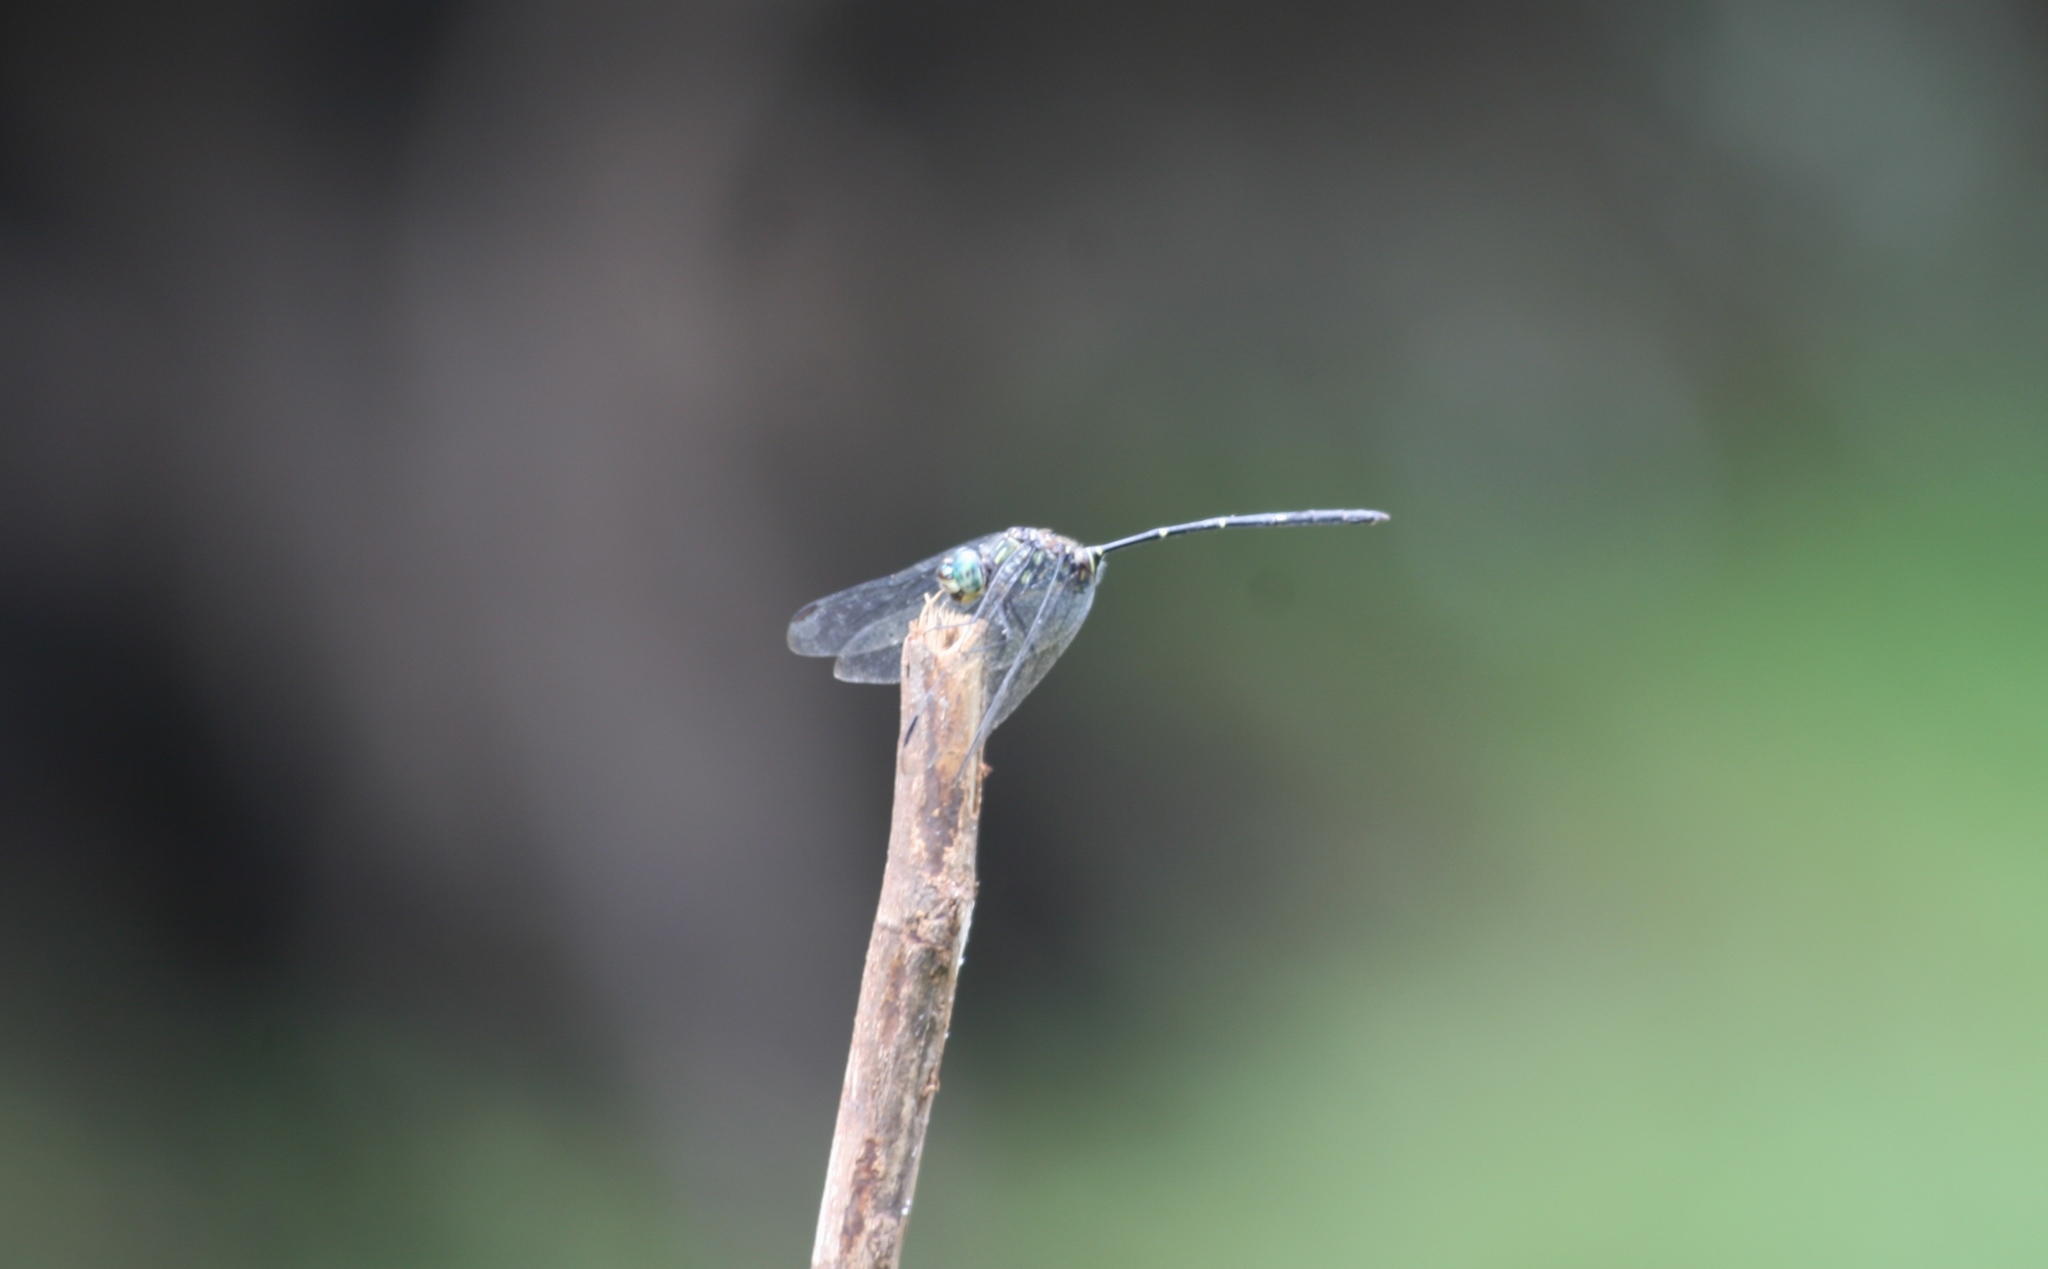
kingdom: Animalia
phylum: Arthropoda
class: Insecta
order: Odonata
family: Libellulidae
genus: Olpogastra
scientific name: Olpogastra lugubris
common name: Bottletail
